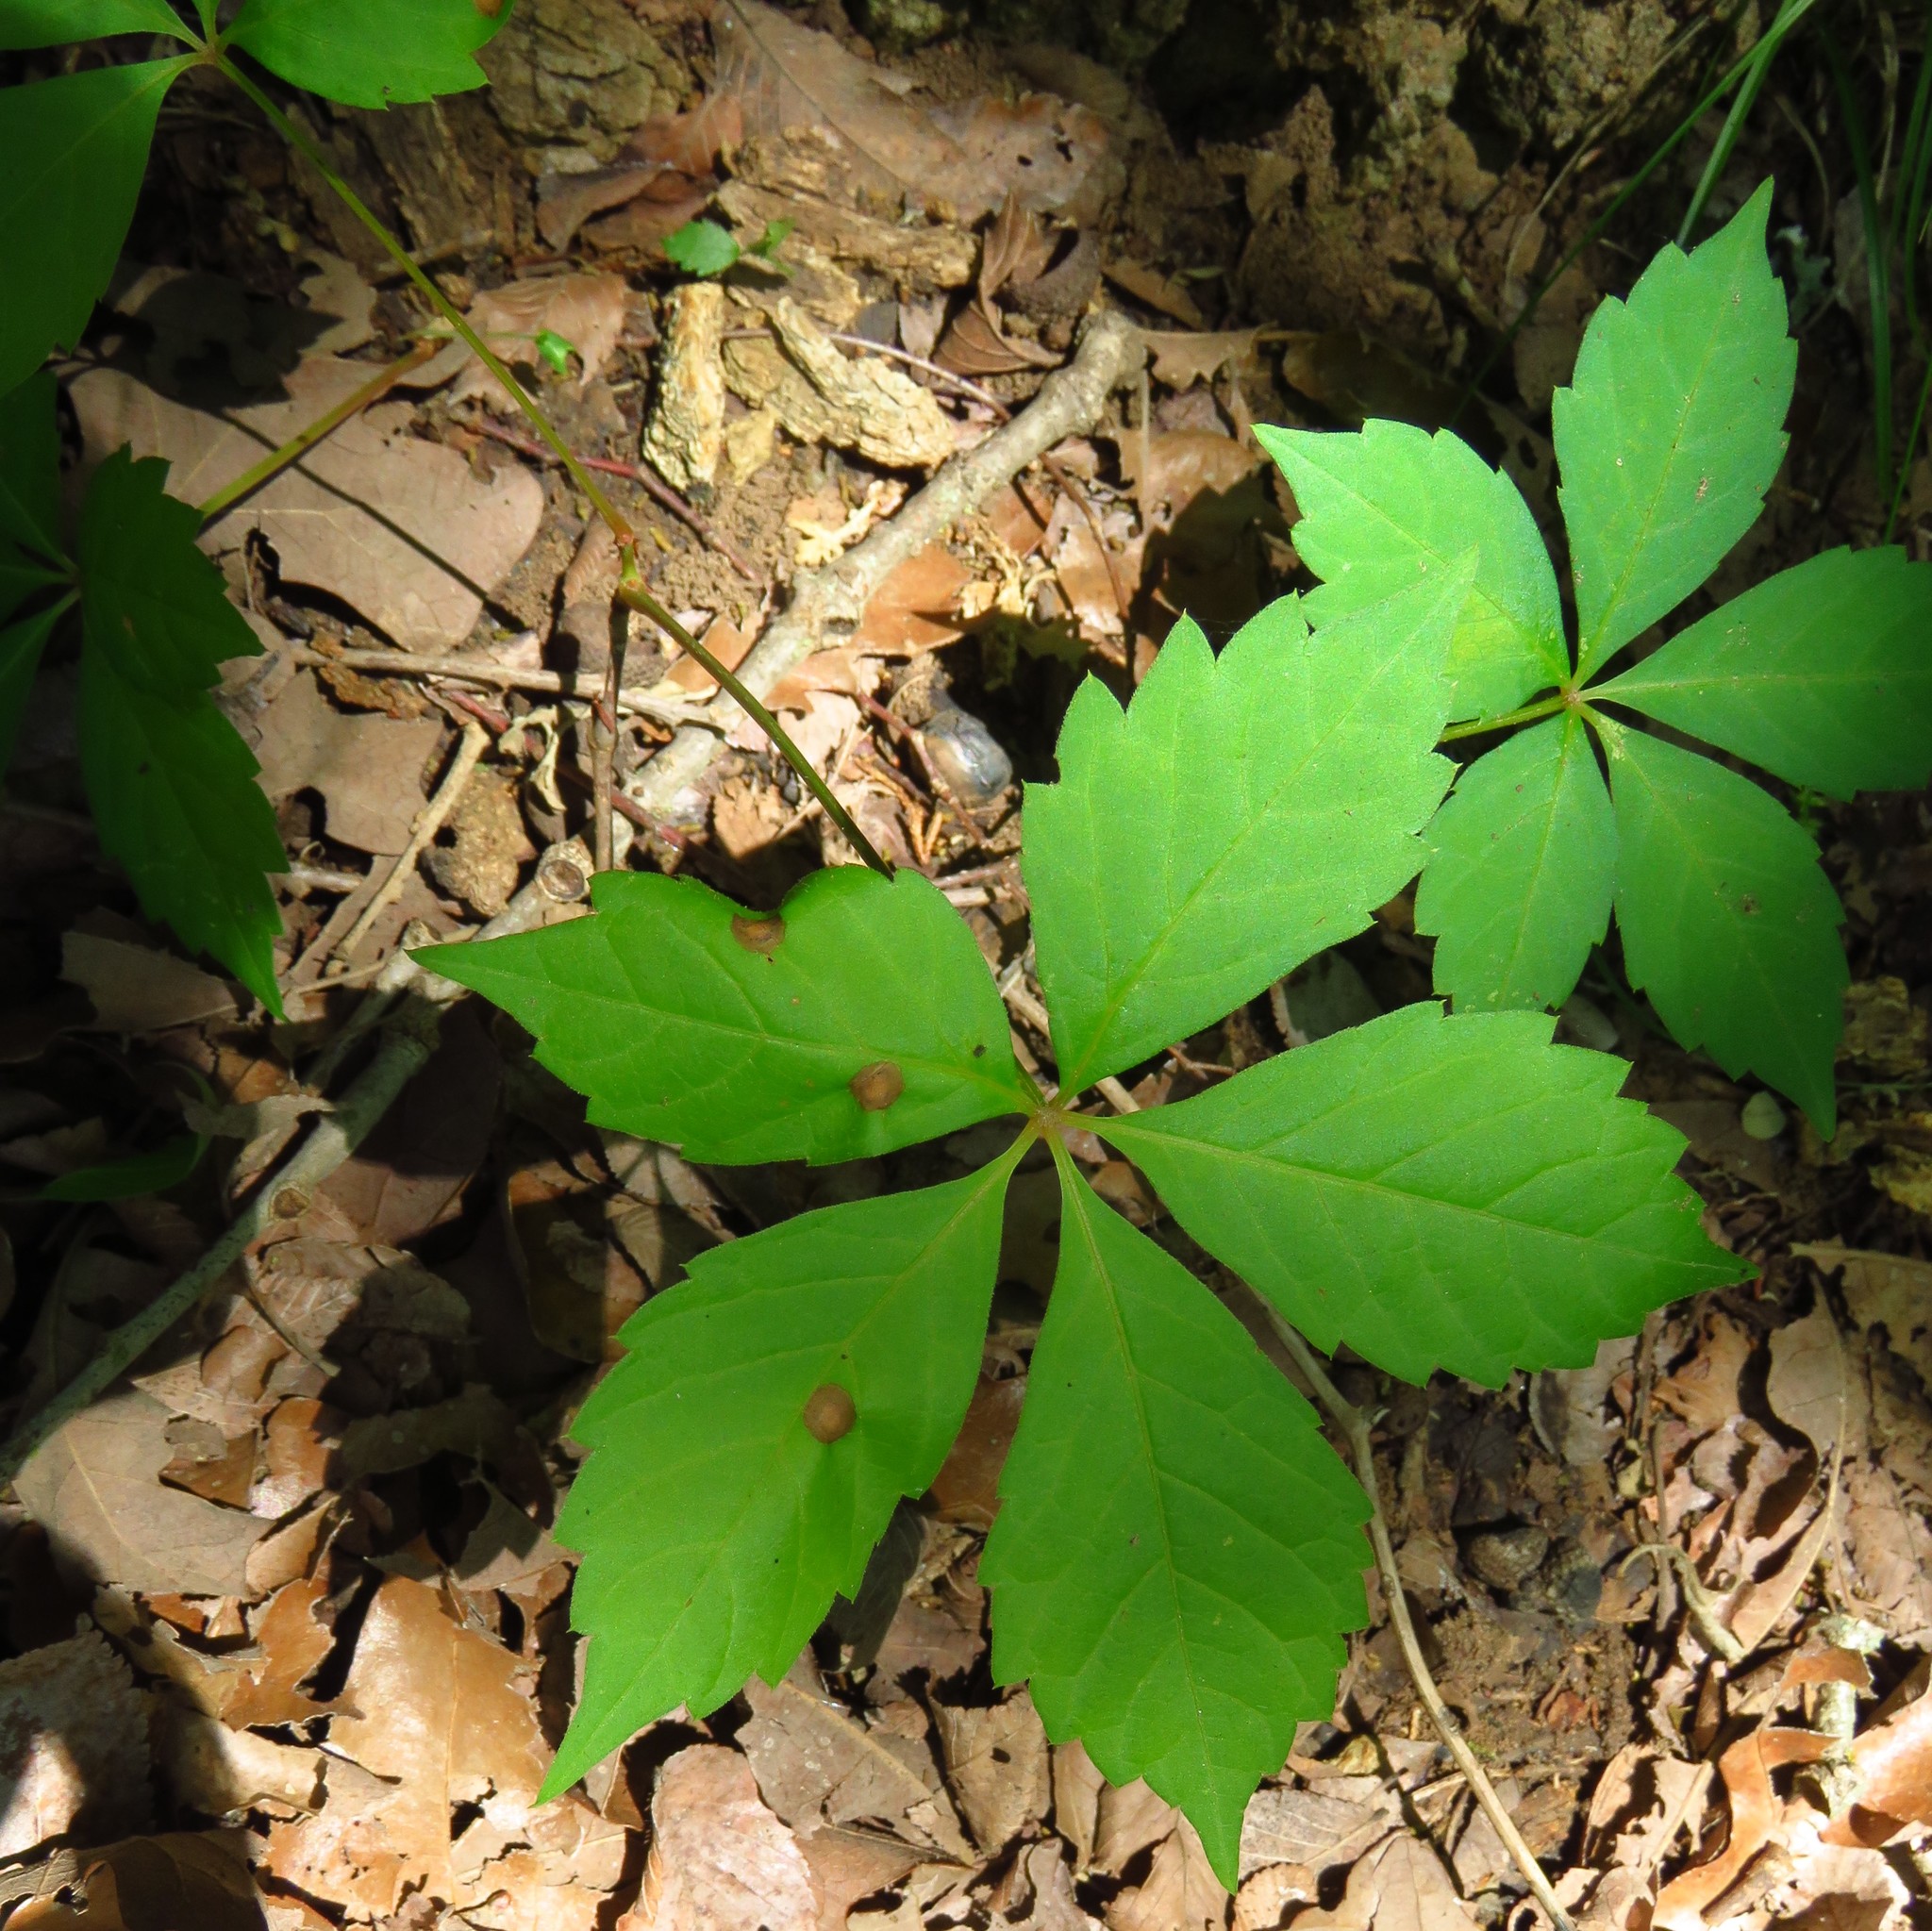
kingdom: Plantae
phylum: Tracheophyta
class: Magnoliopsida
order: Vitales
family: Vitaceae
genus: Parthenocissus
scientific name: Parthenocissus quinquefolia
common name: Virginia-creeper
